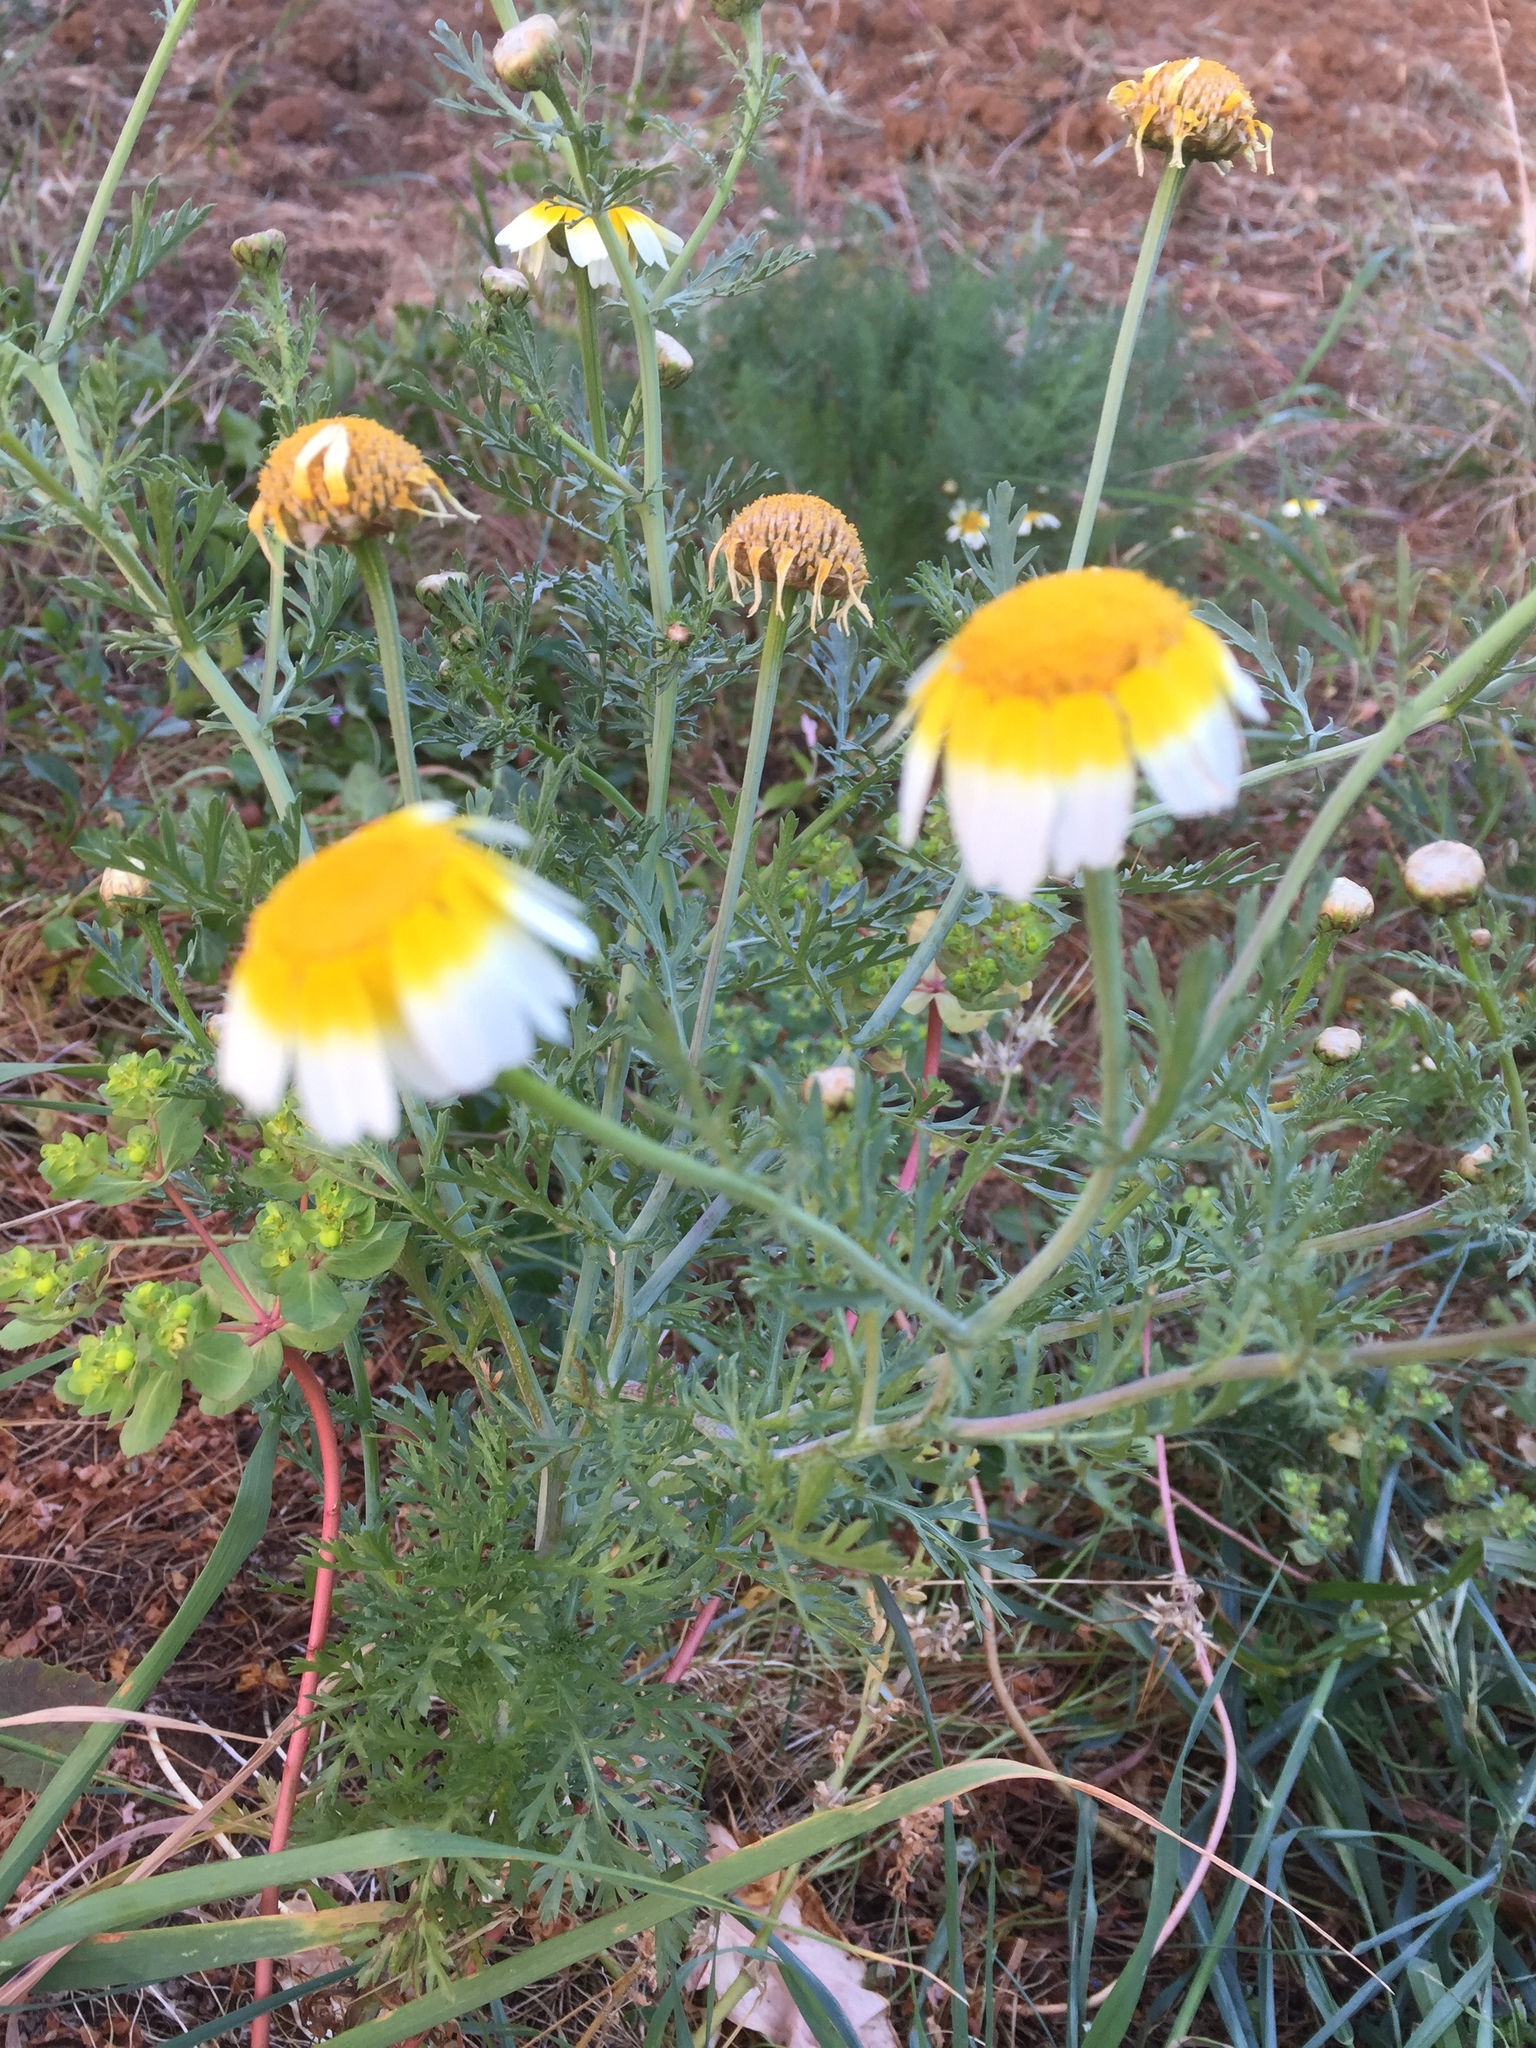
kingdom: Plantae
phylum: Tracheophyta
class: Magnoliopsida
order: Asterales
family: Asteraceae
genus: Glebionis
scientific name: Glebionis coronaria
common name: Crowndaisy
